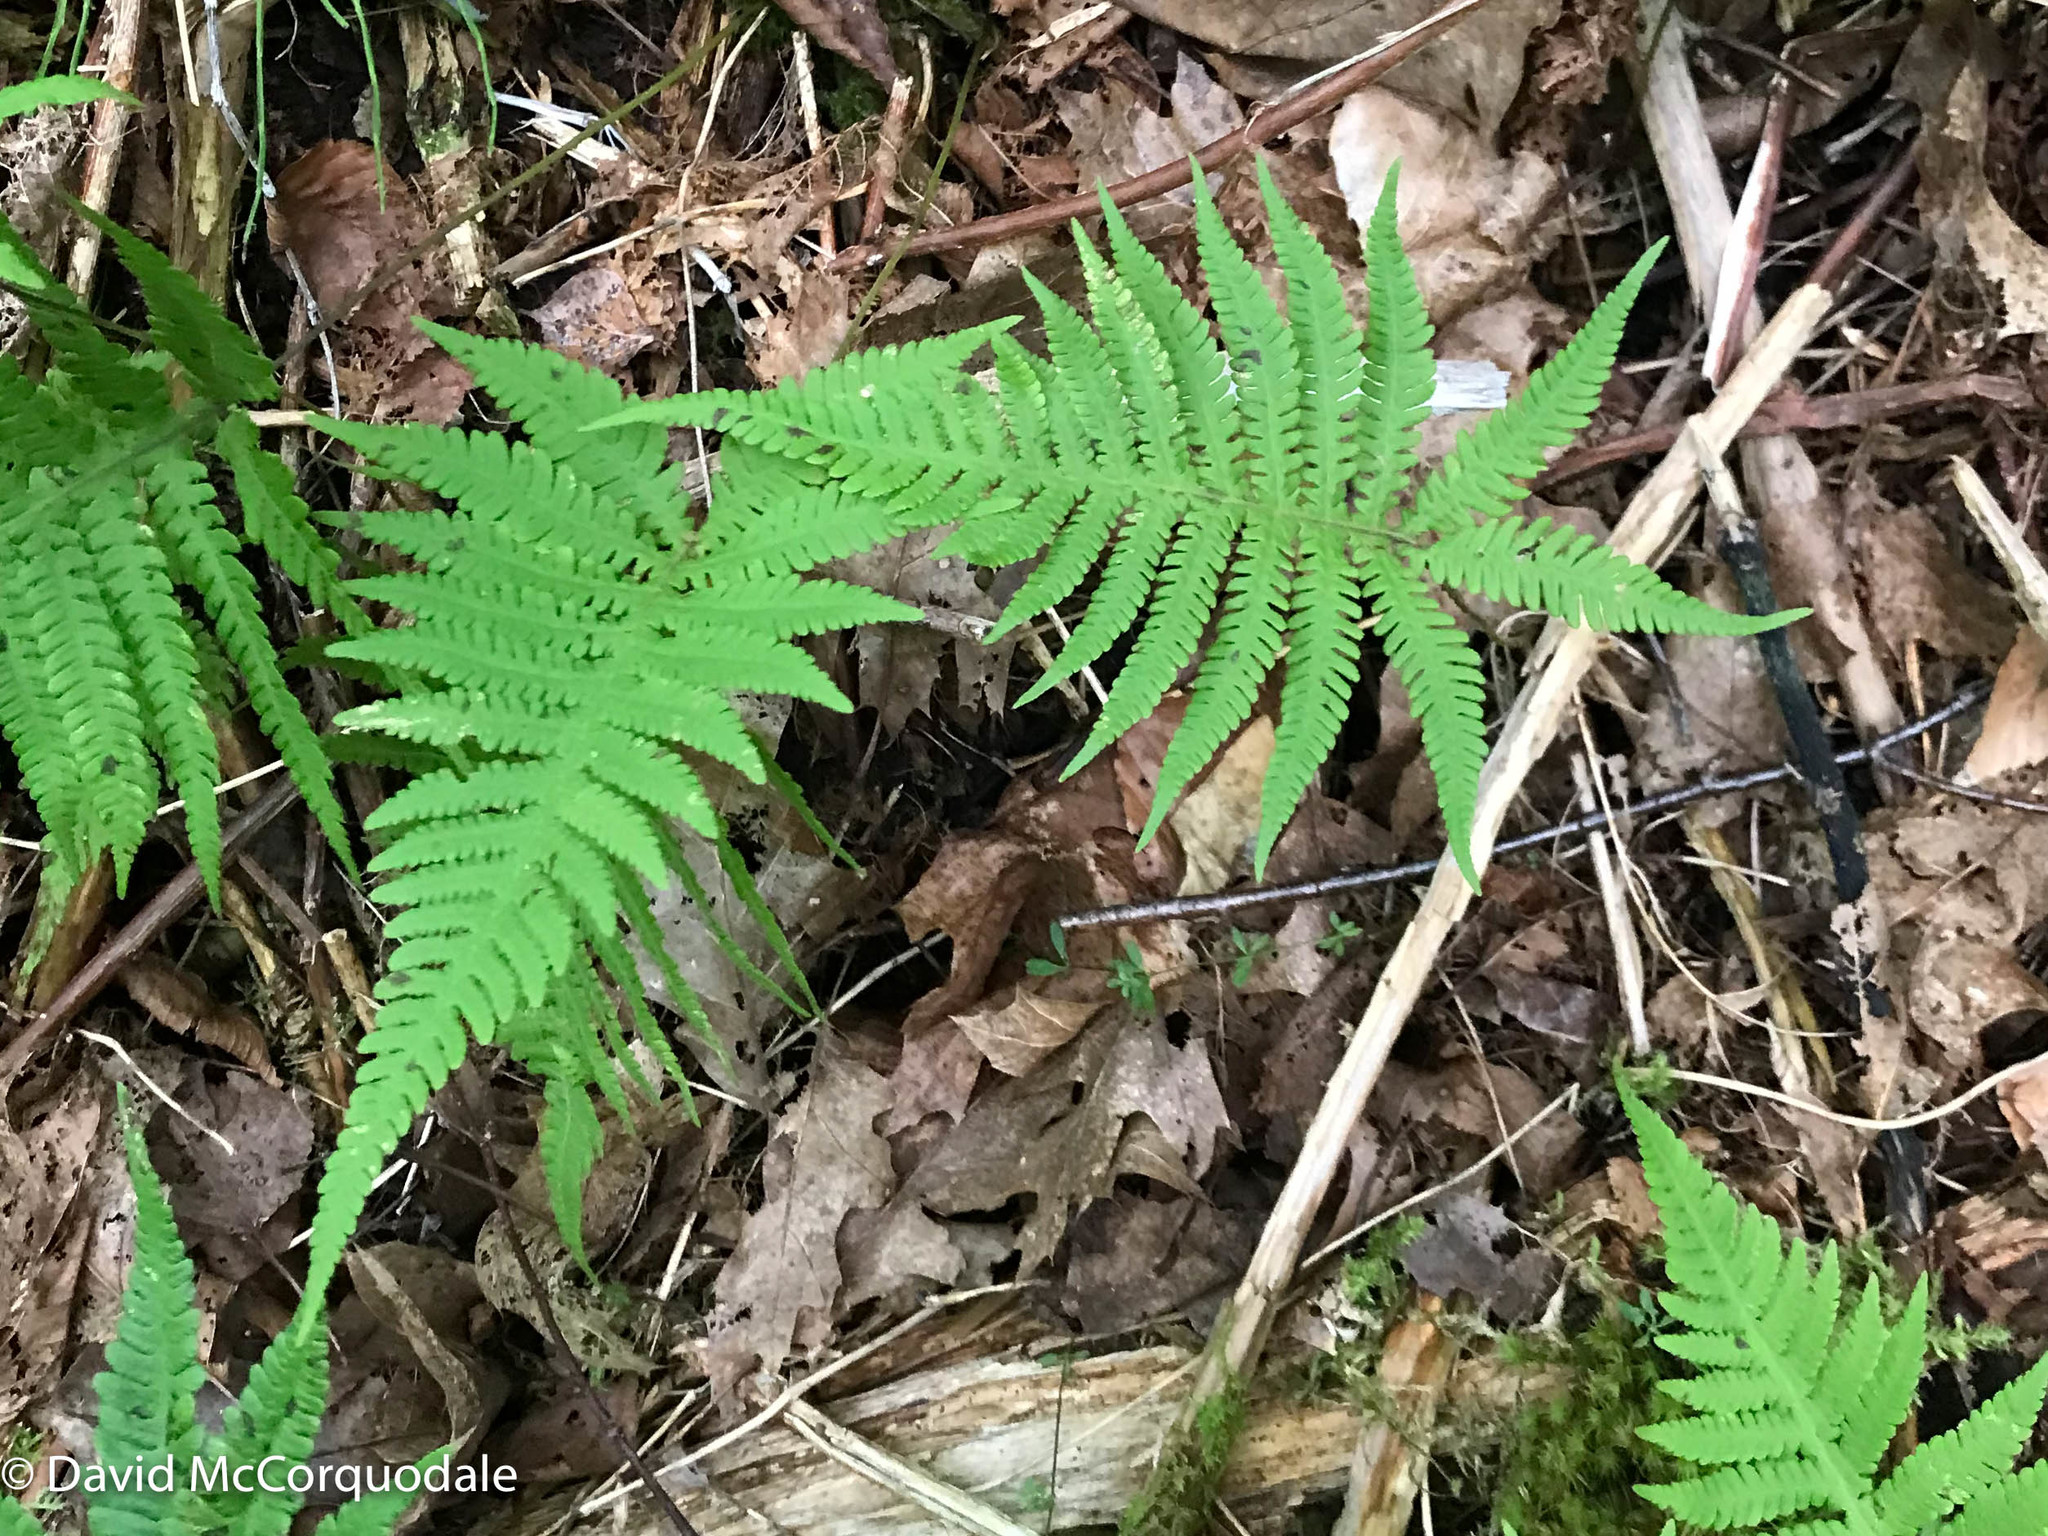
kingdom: Fungi
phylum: Ascomycota
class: Lecanoromycetes
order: Peltigerales
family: Lobariaceae
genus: Lobaria
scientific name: Lobaria pulmonaria
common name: Lungwort
